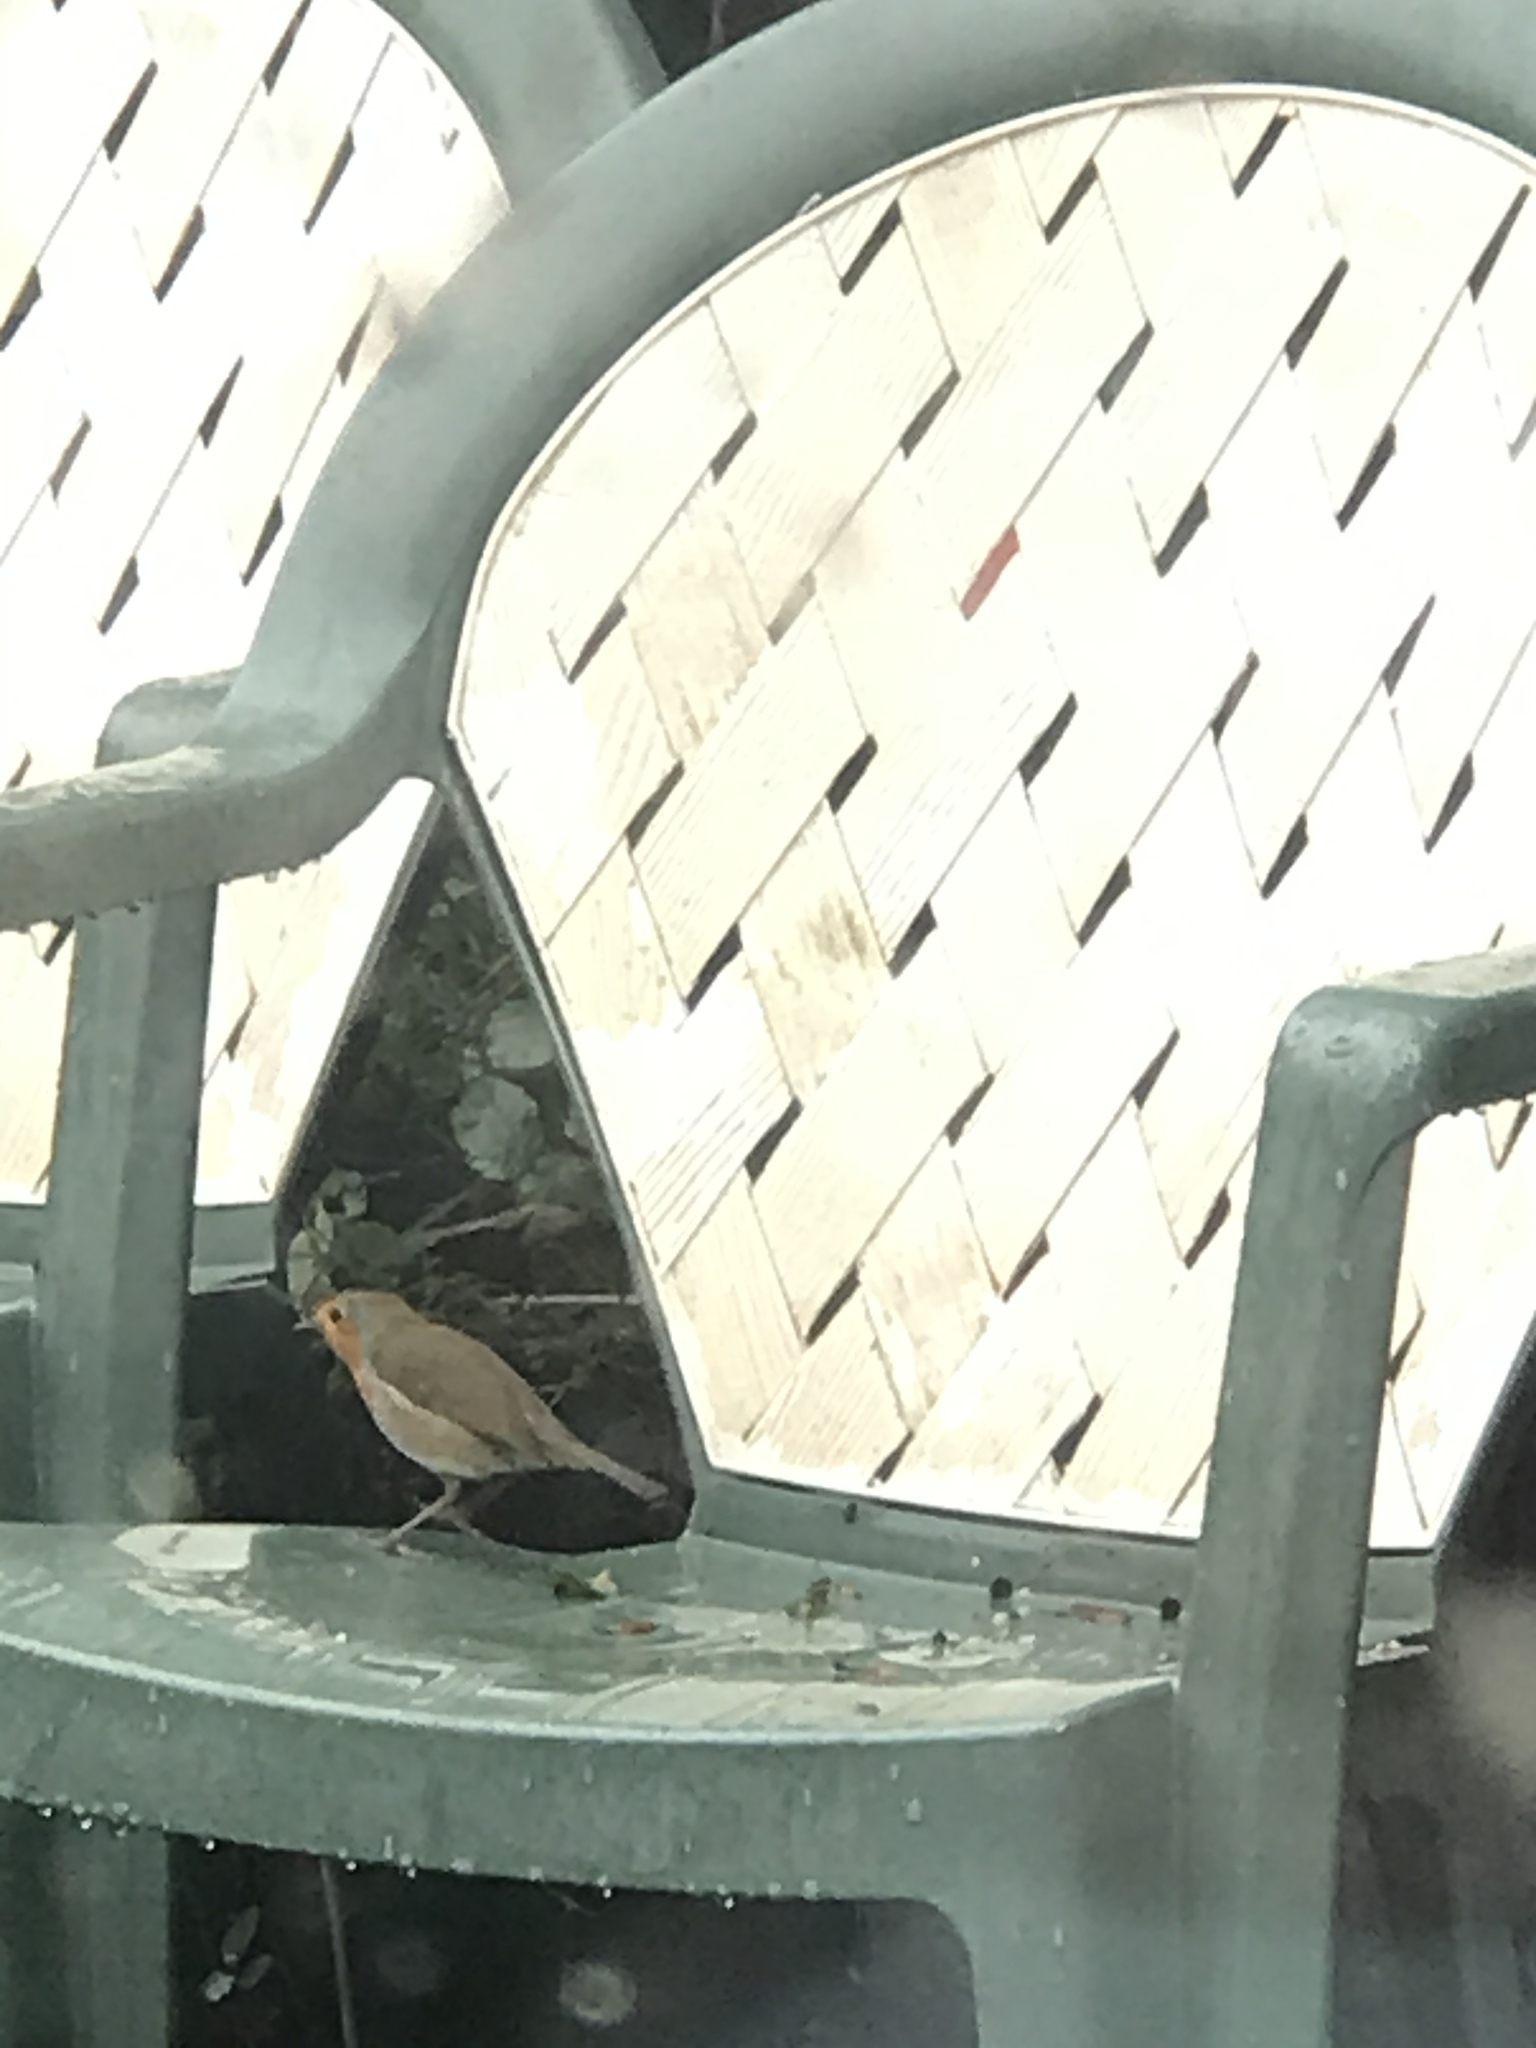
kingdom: Animalia
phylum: Chordata
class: Aves
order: Passeriformes
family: Muscicapidae
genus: Erithacus
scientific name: Erithacus rubecula
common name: European robin
